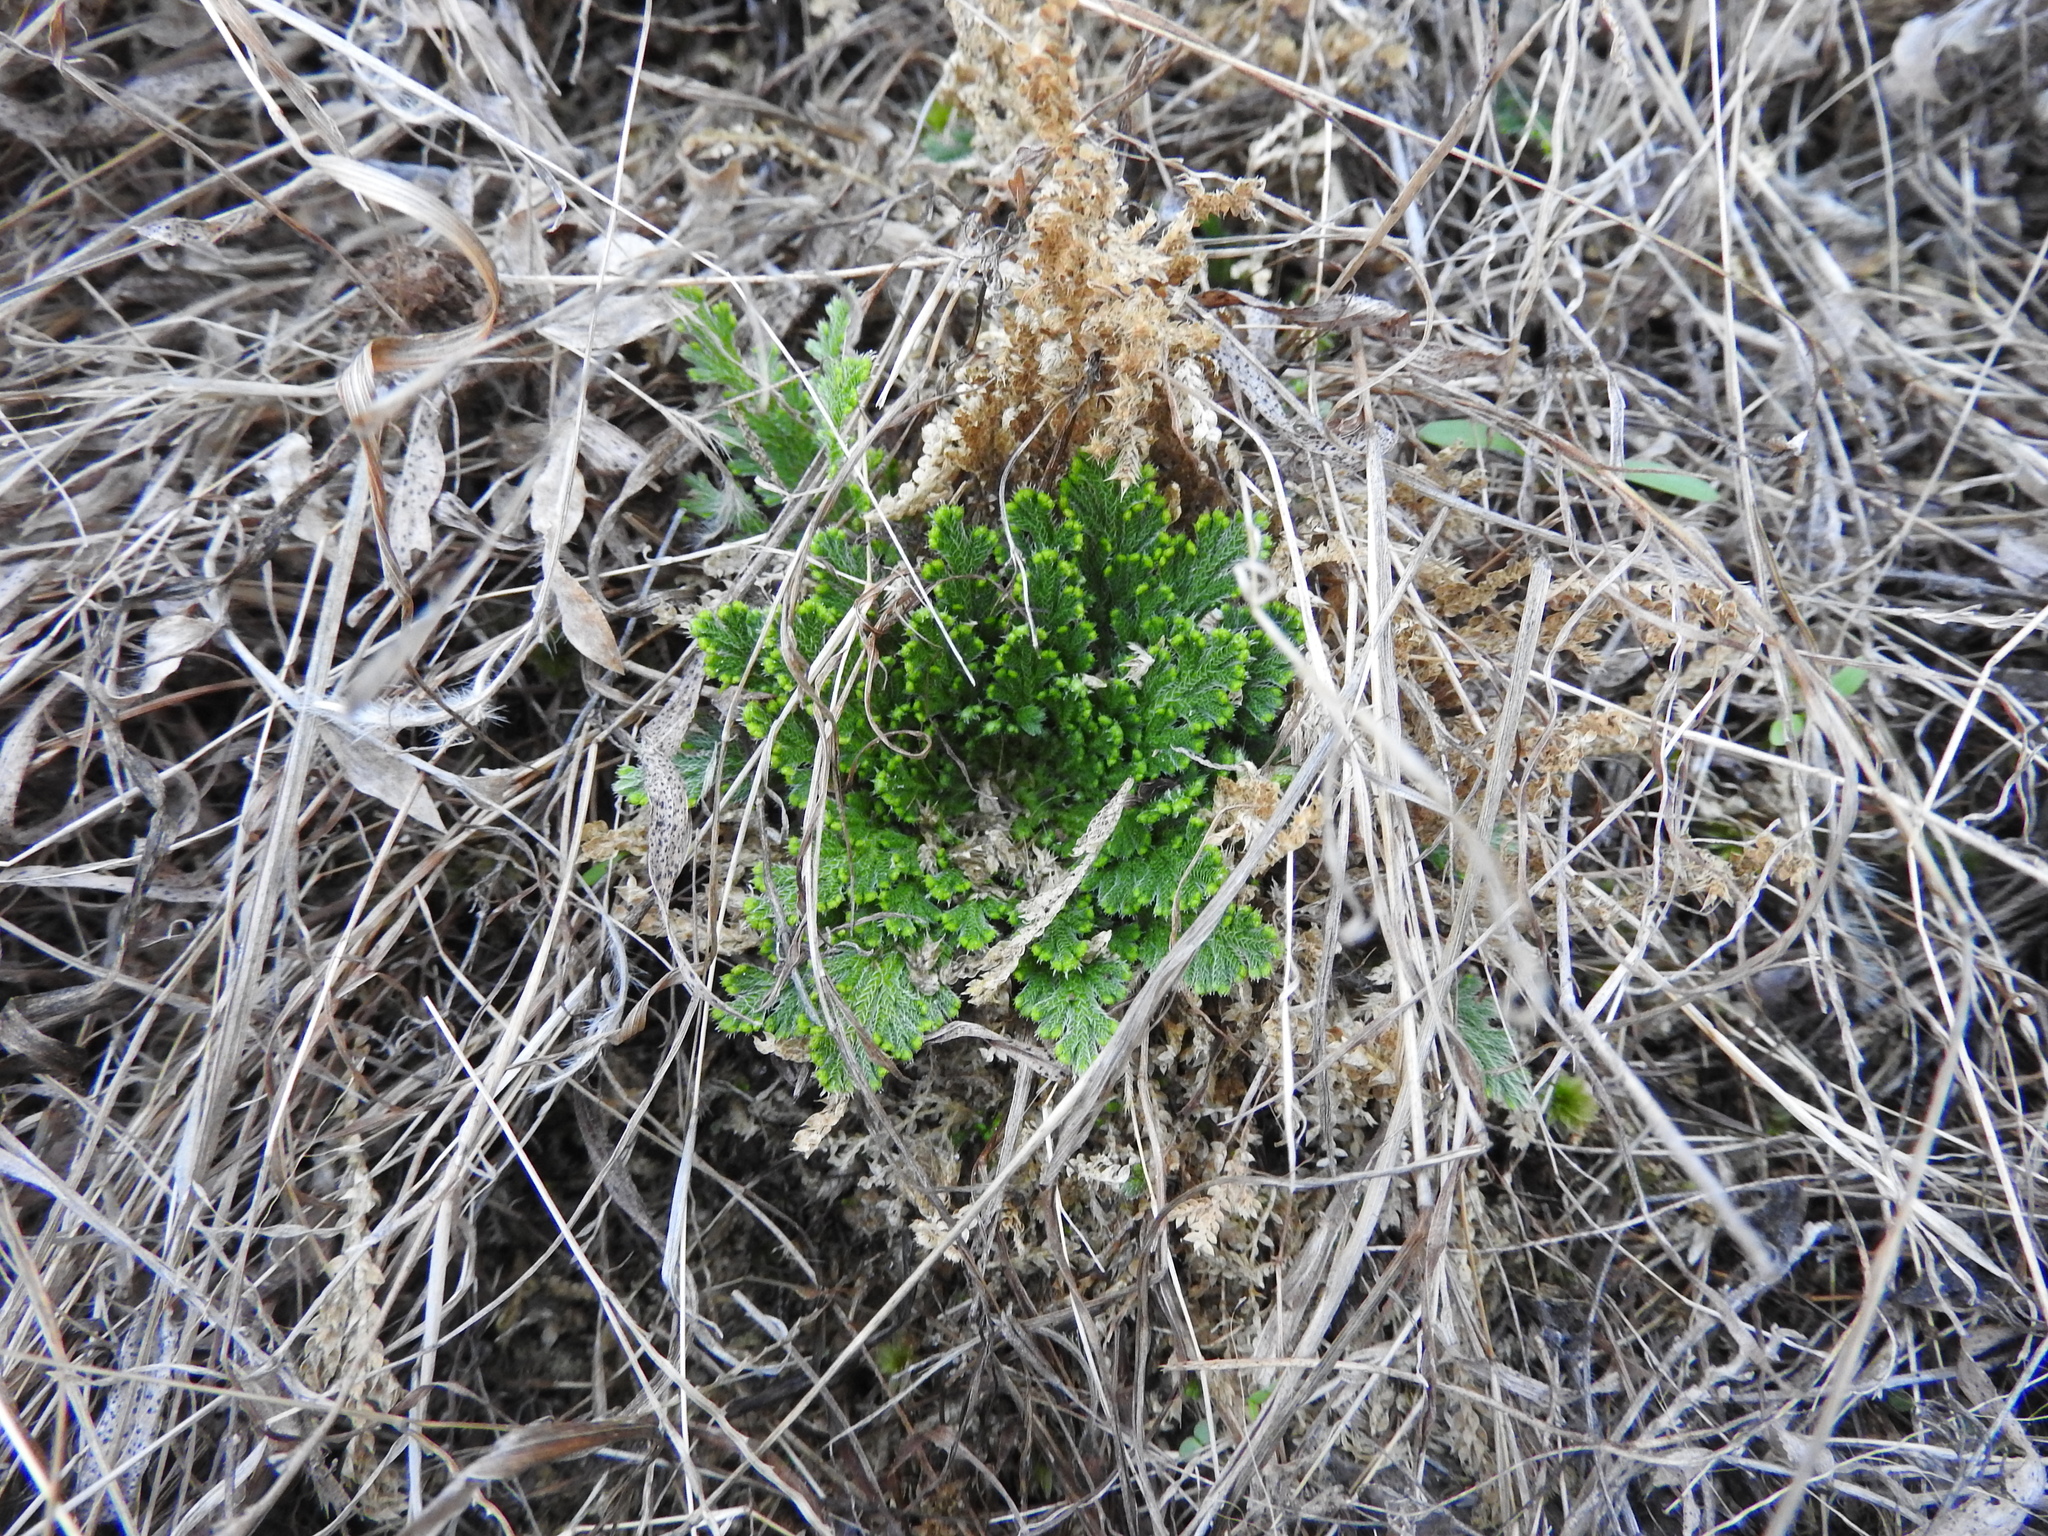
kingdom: Plantae
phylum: Tracheophyta
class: Lycopodiopsida
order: Selaginellales
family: Selaginellaceae
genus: Selaginella
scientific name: Selaginella lepidophylla
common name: Rose-of-jericho
